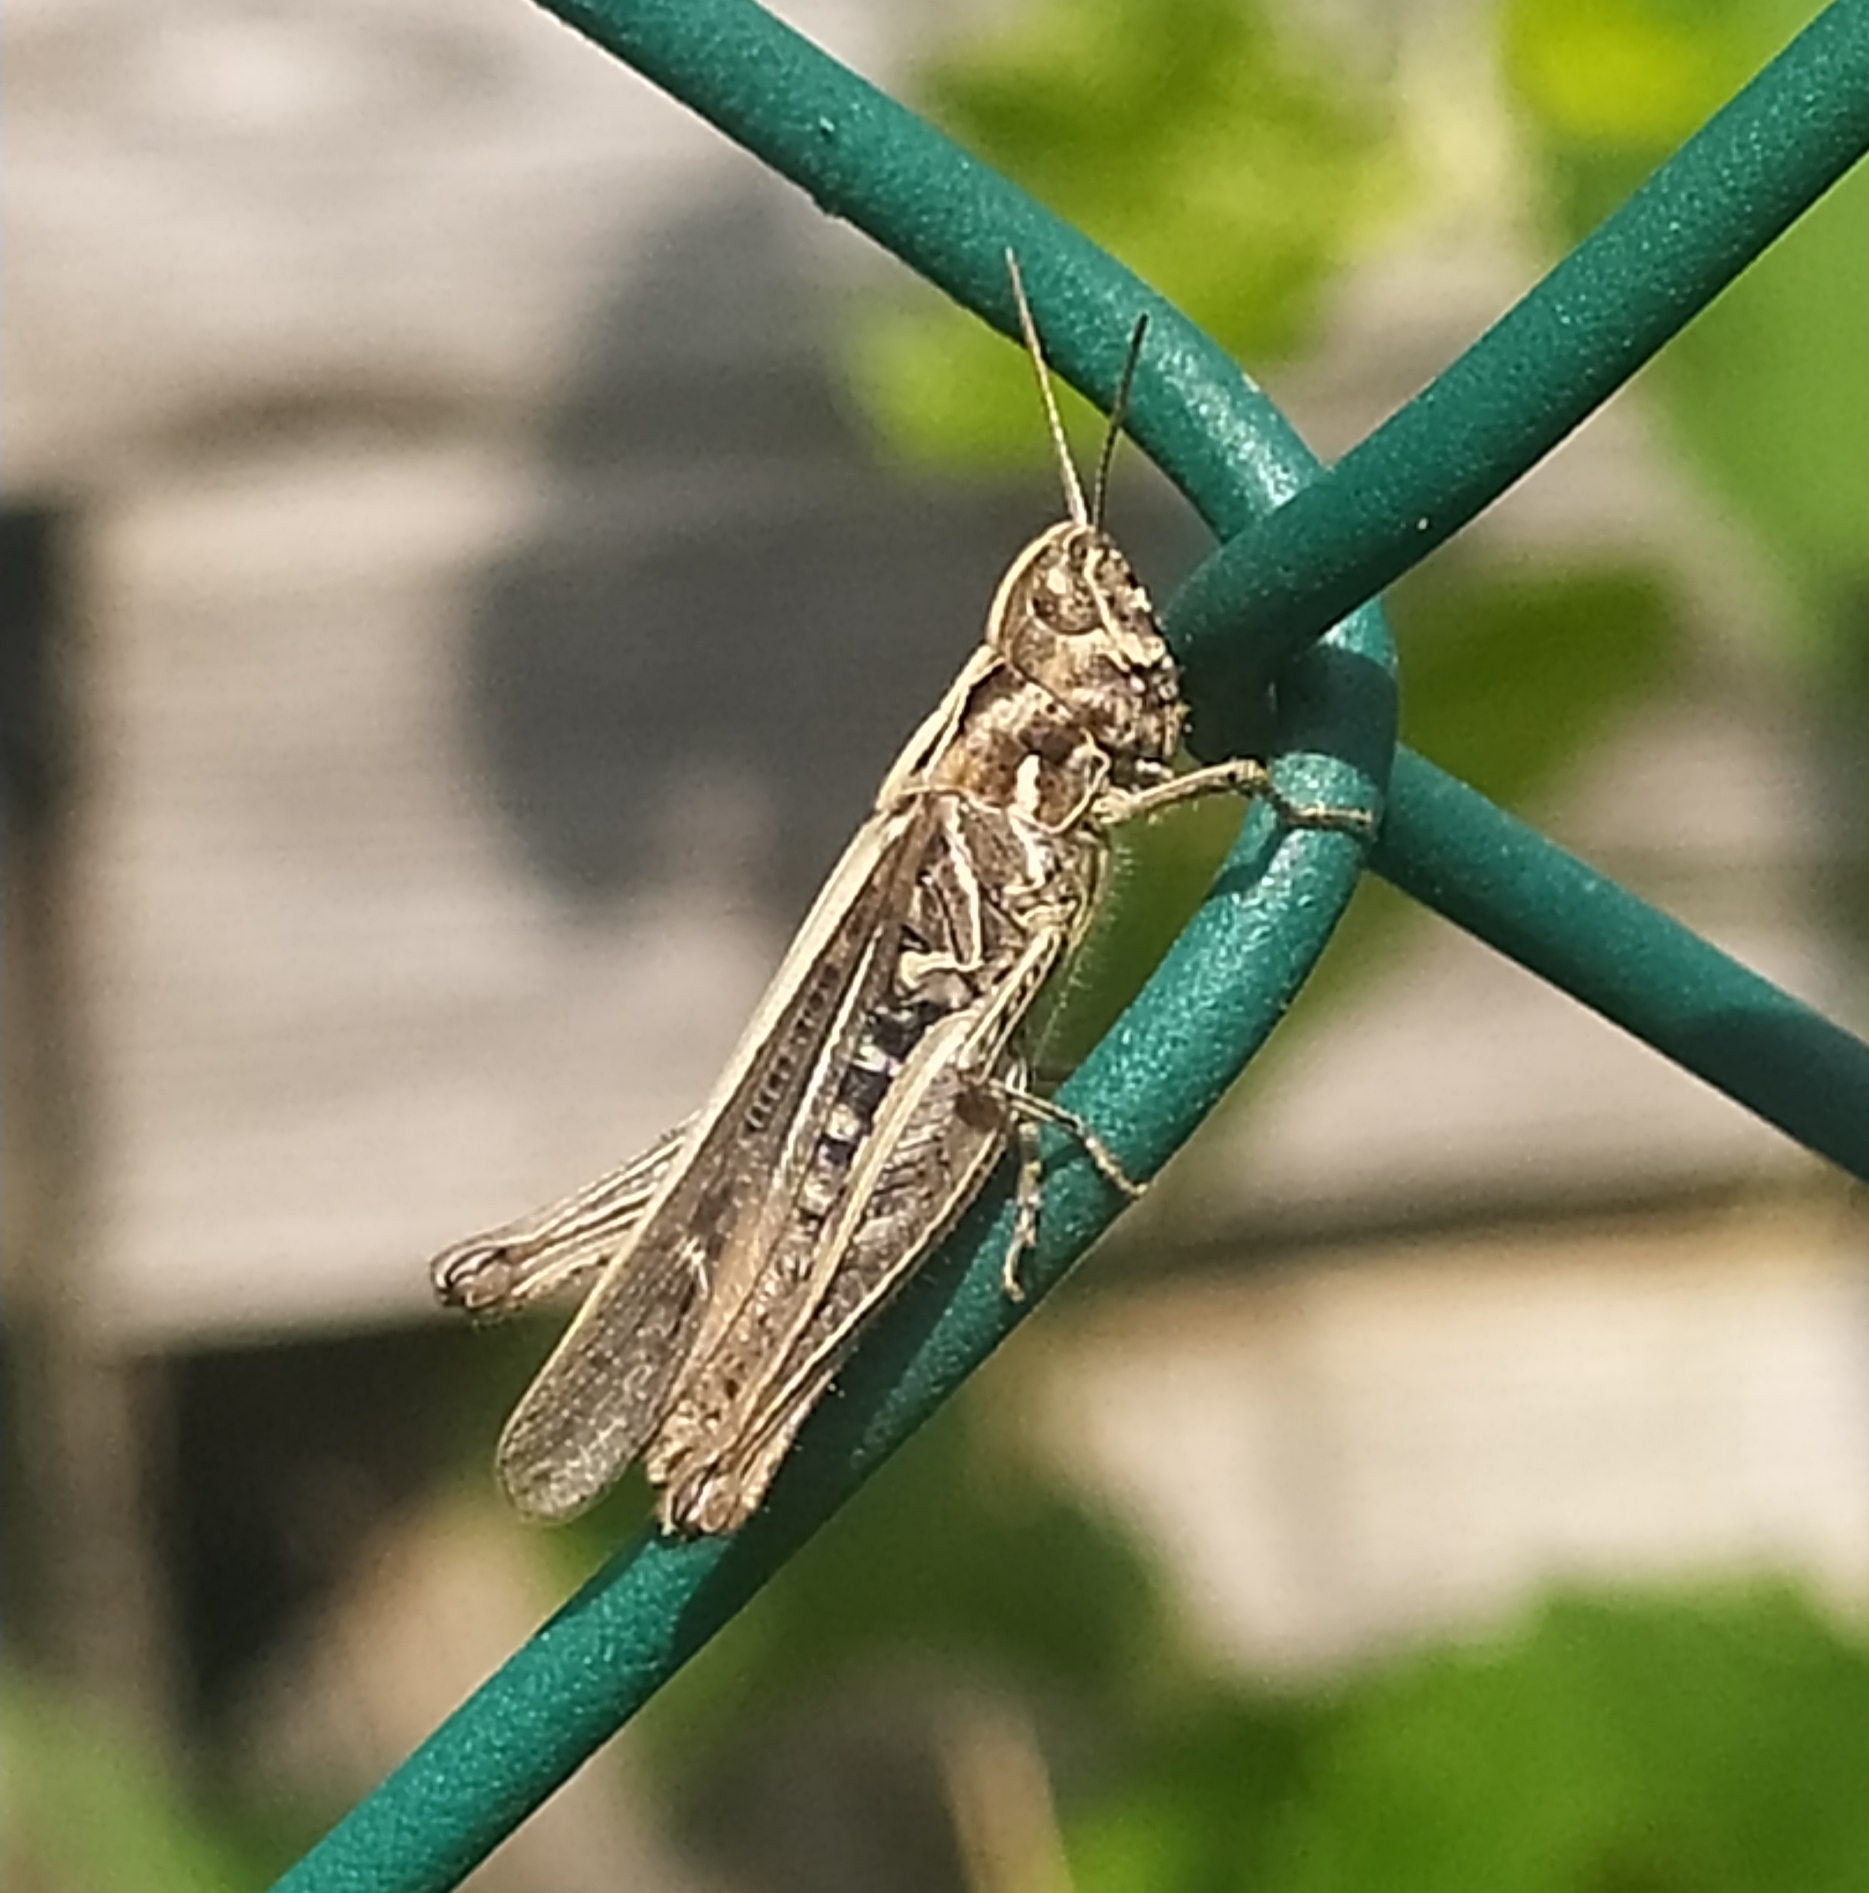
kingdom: Animalia
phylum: Arthropoda
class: Insecta
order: Orthoptera
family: Acrididae
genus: Chorthippus
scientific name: Chorthippus biguttulus
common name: Bow-winged grasshopper
